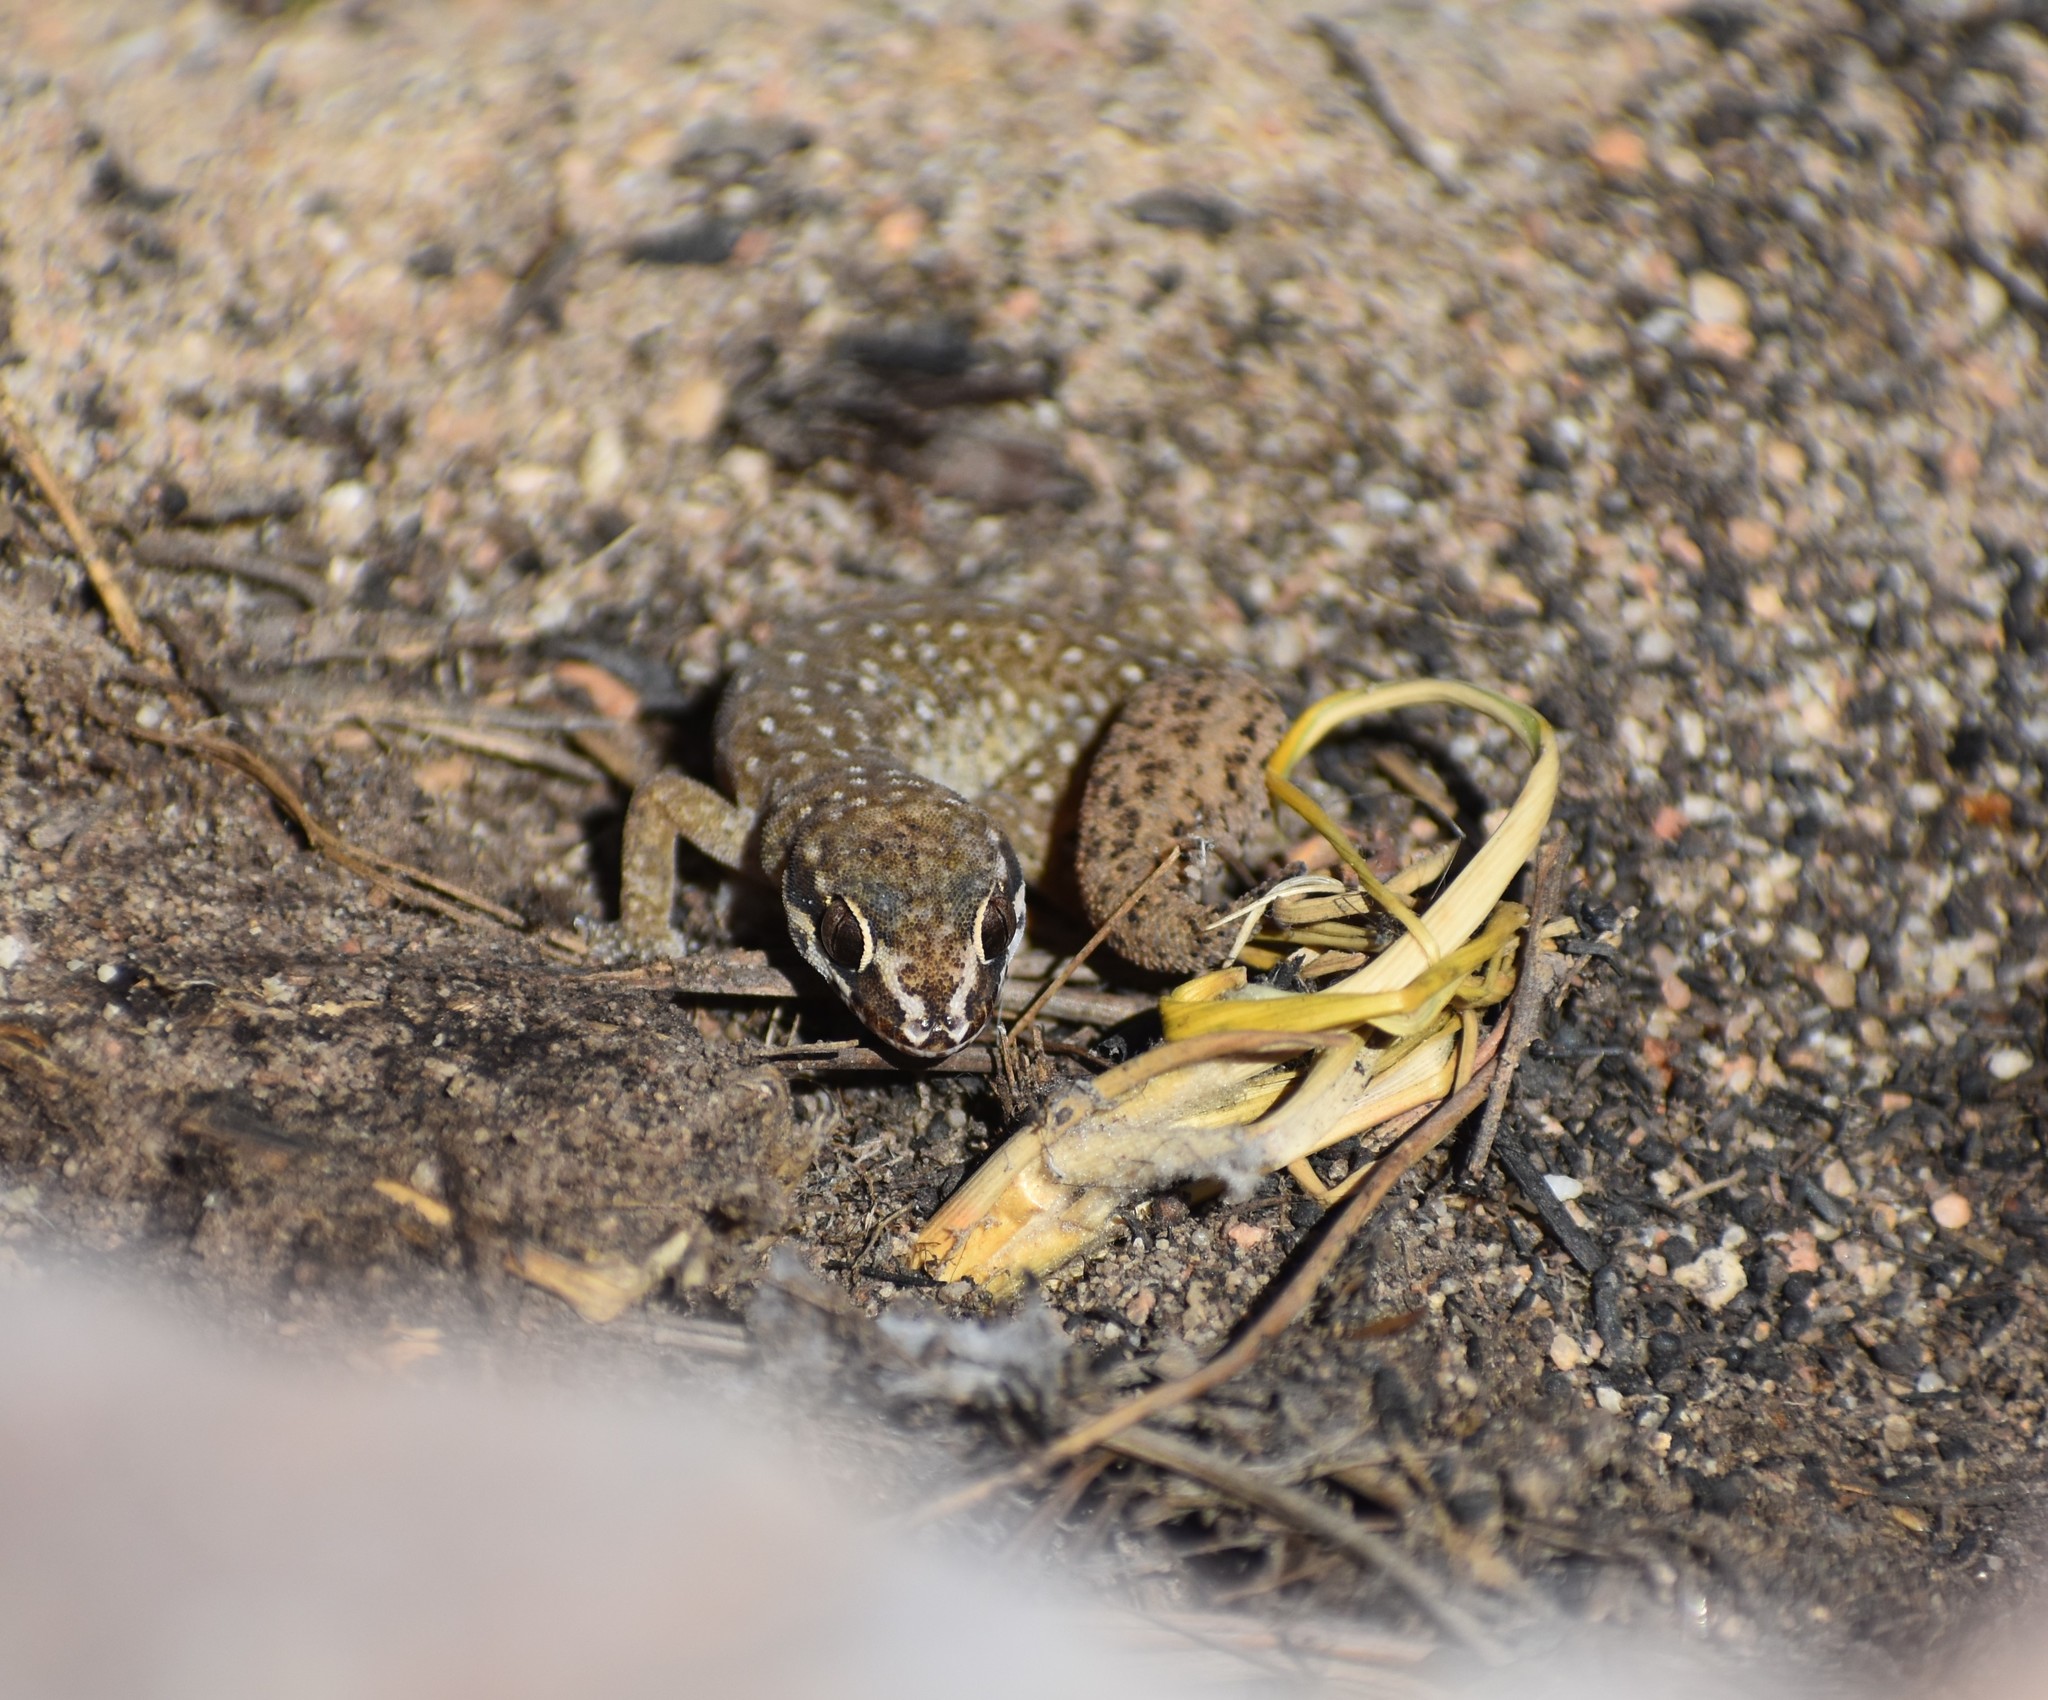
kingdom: Animalia
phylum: Chordata
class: Squamata
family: Gekkonidae
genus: Pachydactylus
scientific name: Pachydactylus geitje
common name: Ocellated thick-toed gecko
